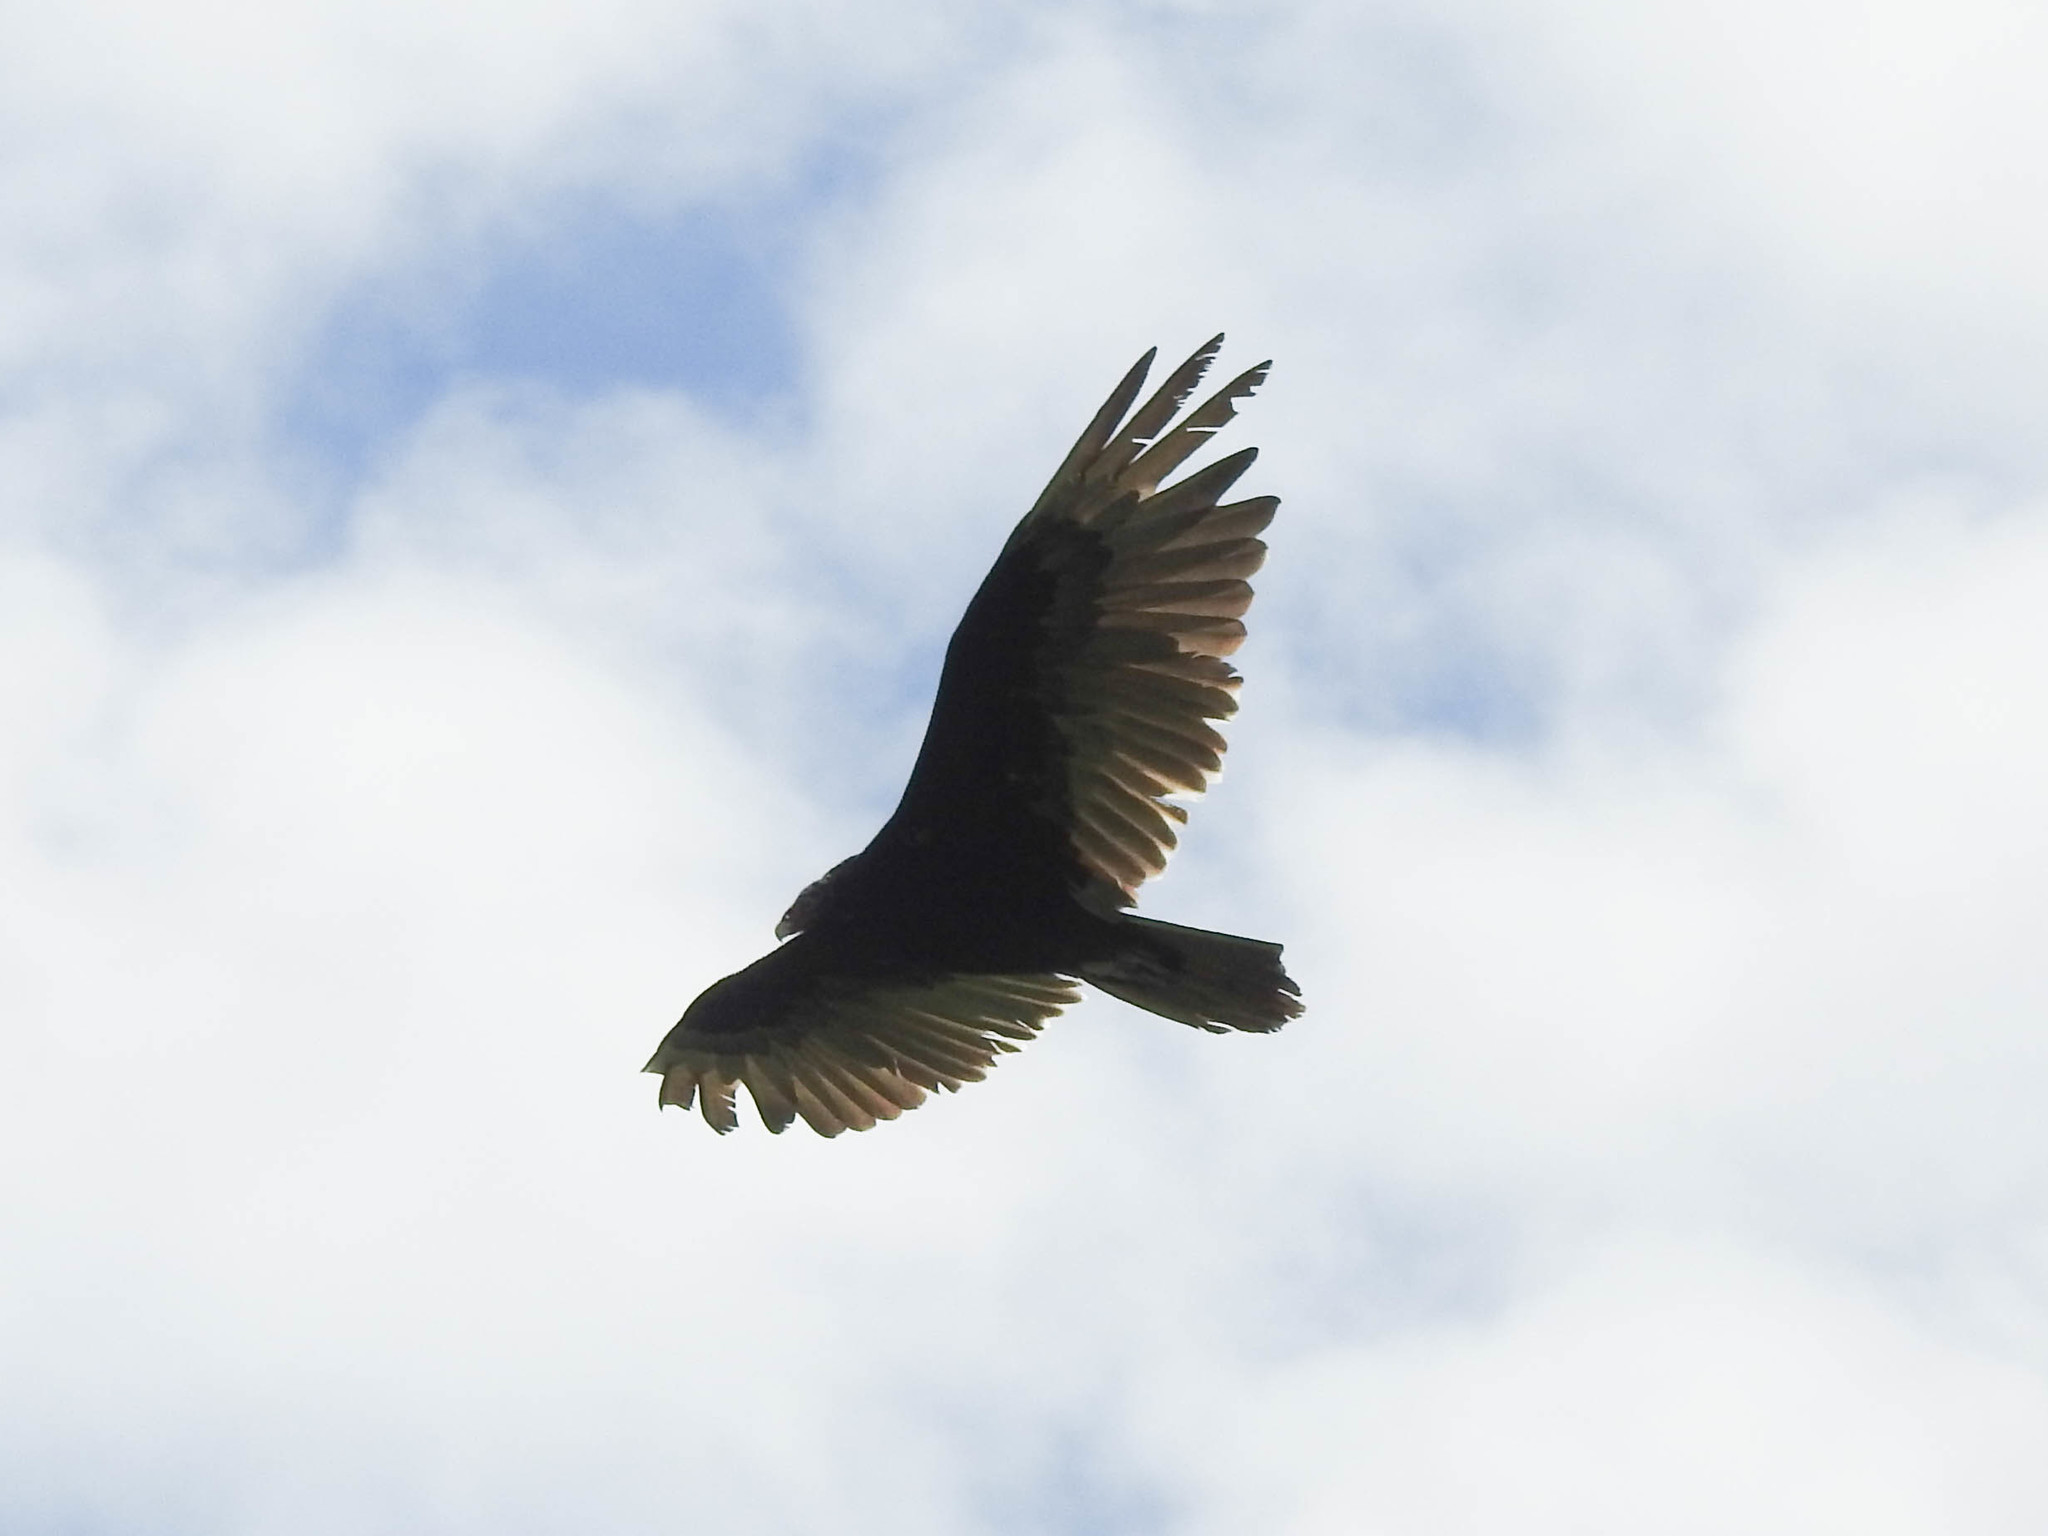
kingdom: Animalia
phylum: Chordata
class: Aves
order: Accipitriformes
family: Cathartidae
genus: Cathartes
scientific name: Cathartes aura
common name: Turkey vulture
